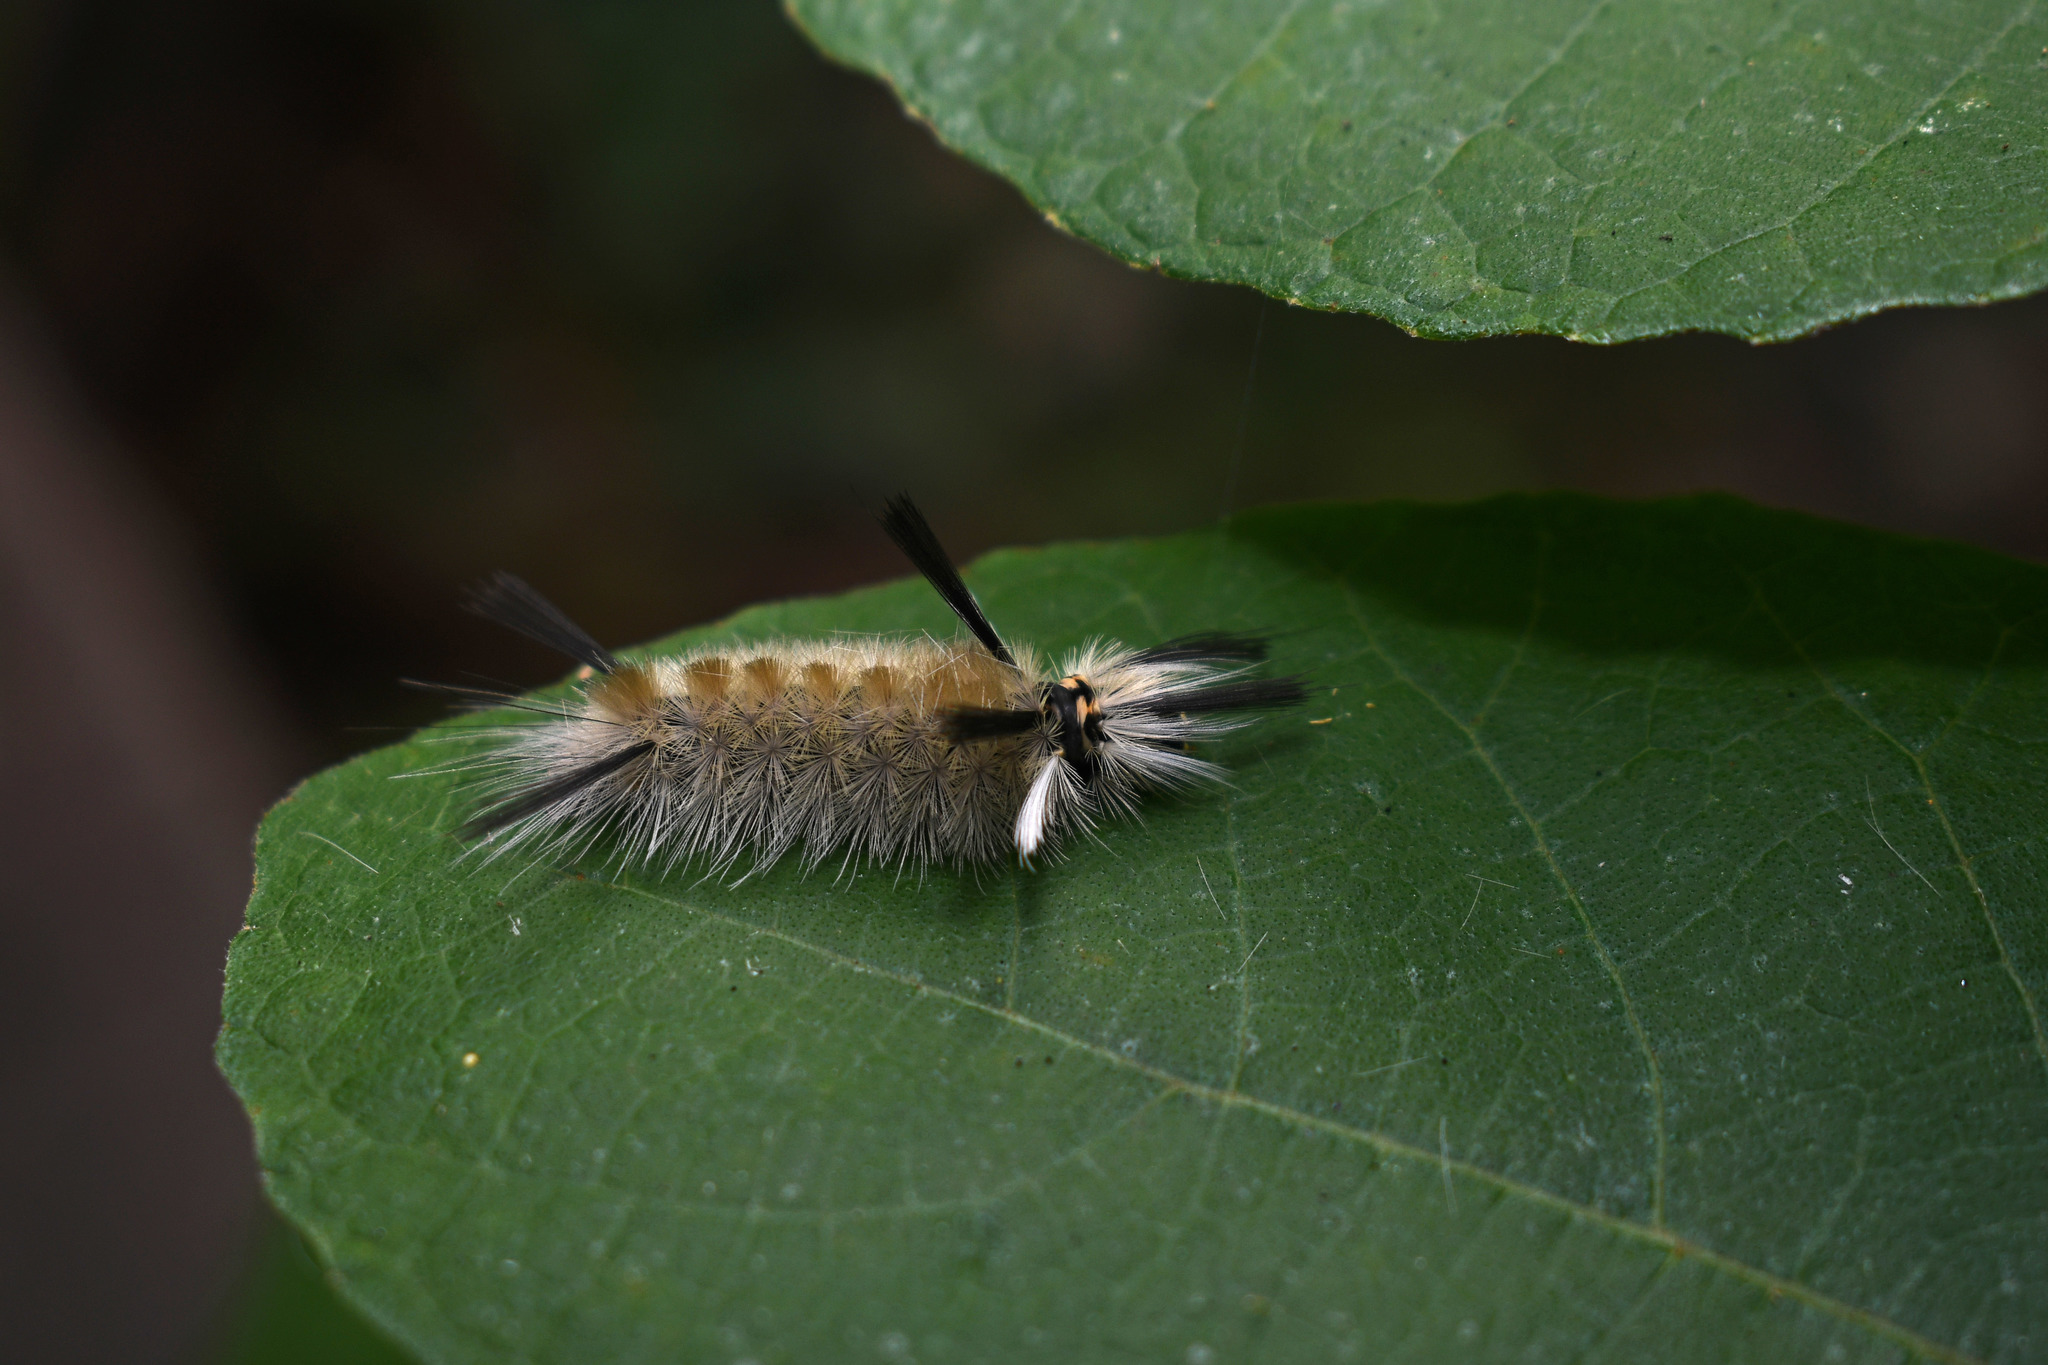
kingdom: Animalia
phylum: Arthropoda
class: Insecta
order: Lepidoptera
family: Erebidae
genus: Halysidota
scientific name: Halysidota tessellaris
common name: Banded tussock moth
